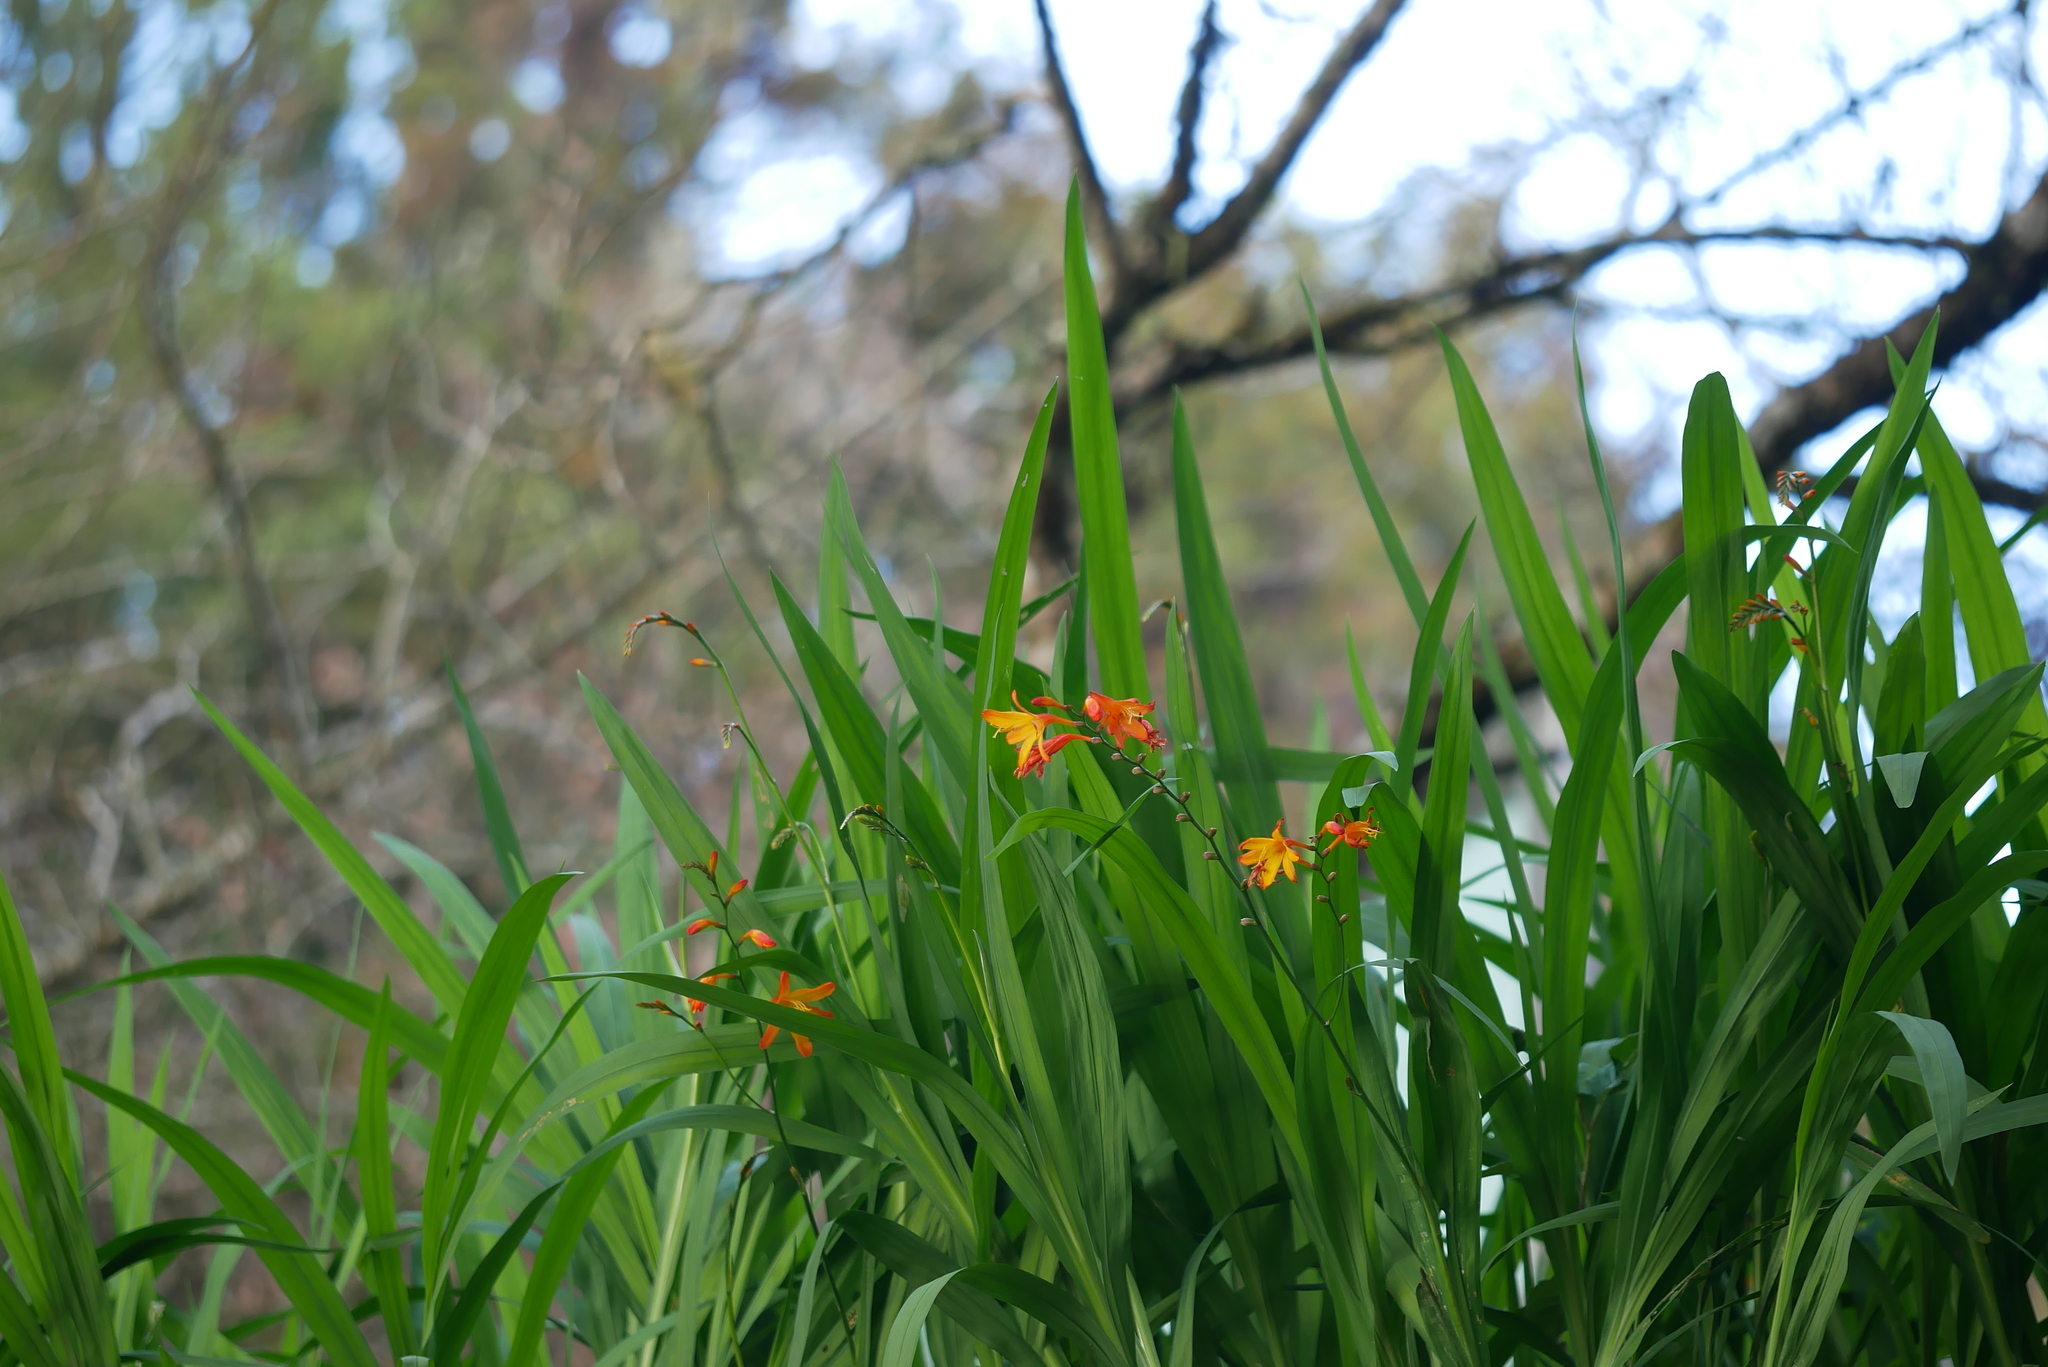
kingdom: Plantae
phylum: Tracheophyta
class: Liliopsida
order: Asparagales
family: Iridaceae
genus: Crocosmia
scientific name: Crocosmia crocosmiiflora
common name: Montbretia
